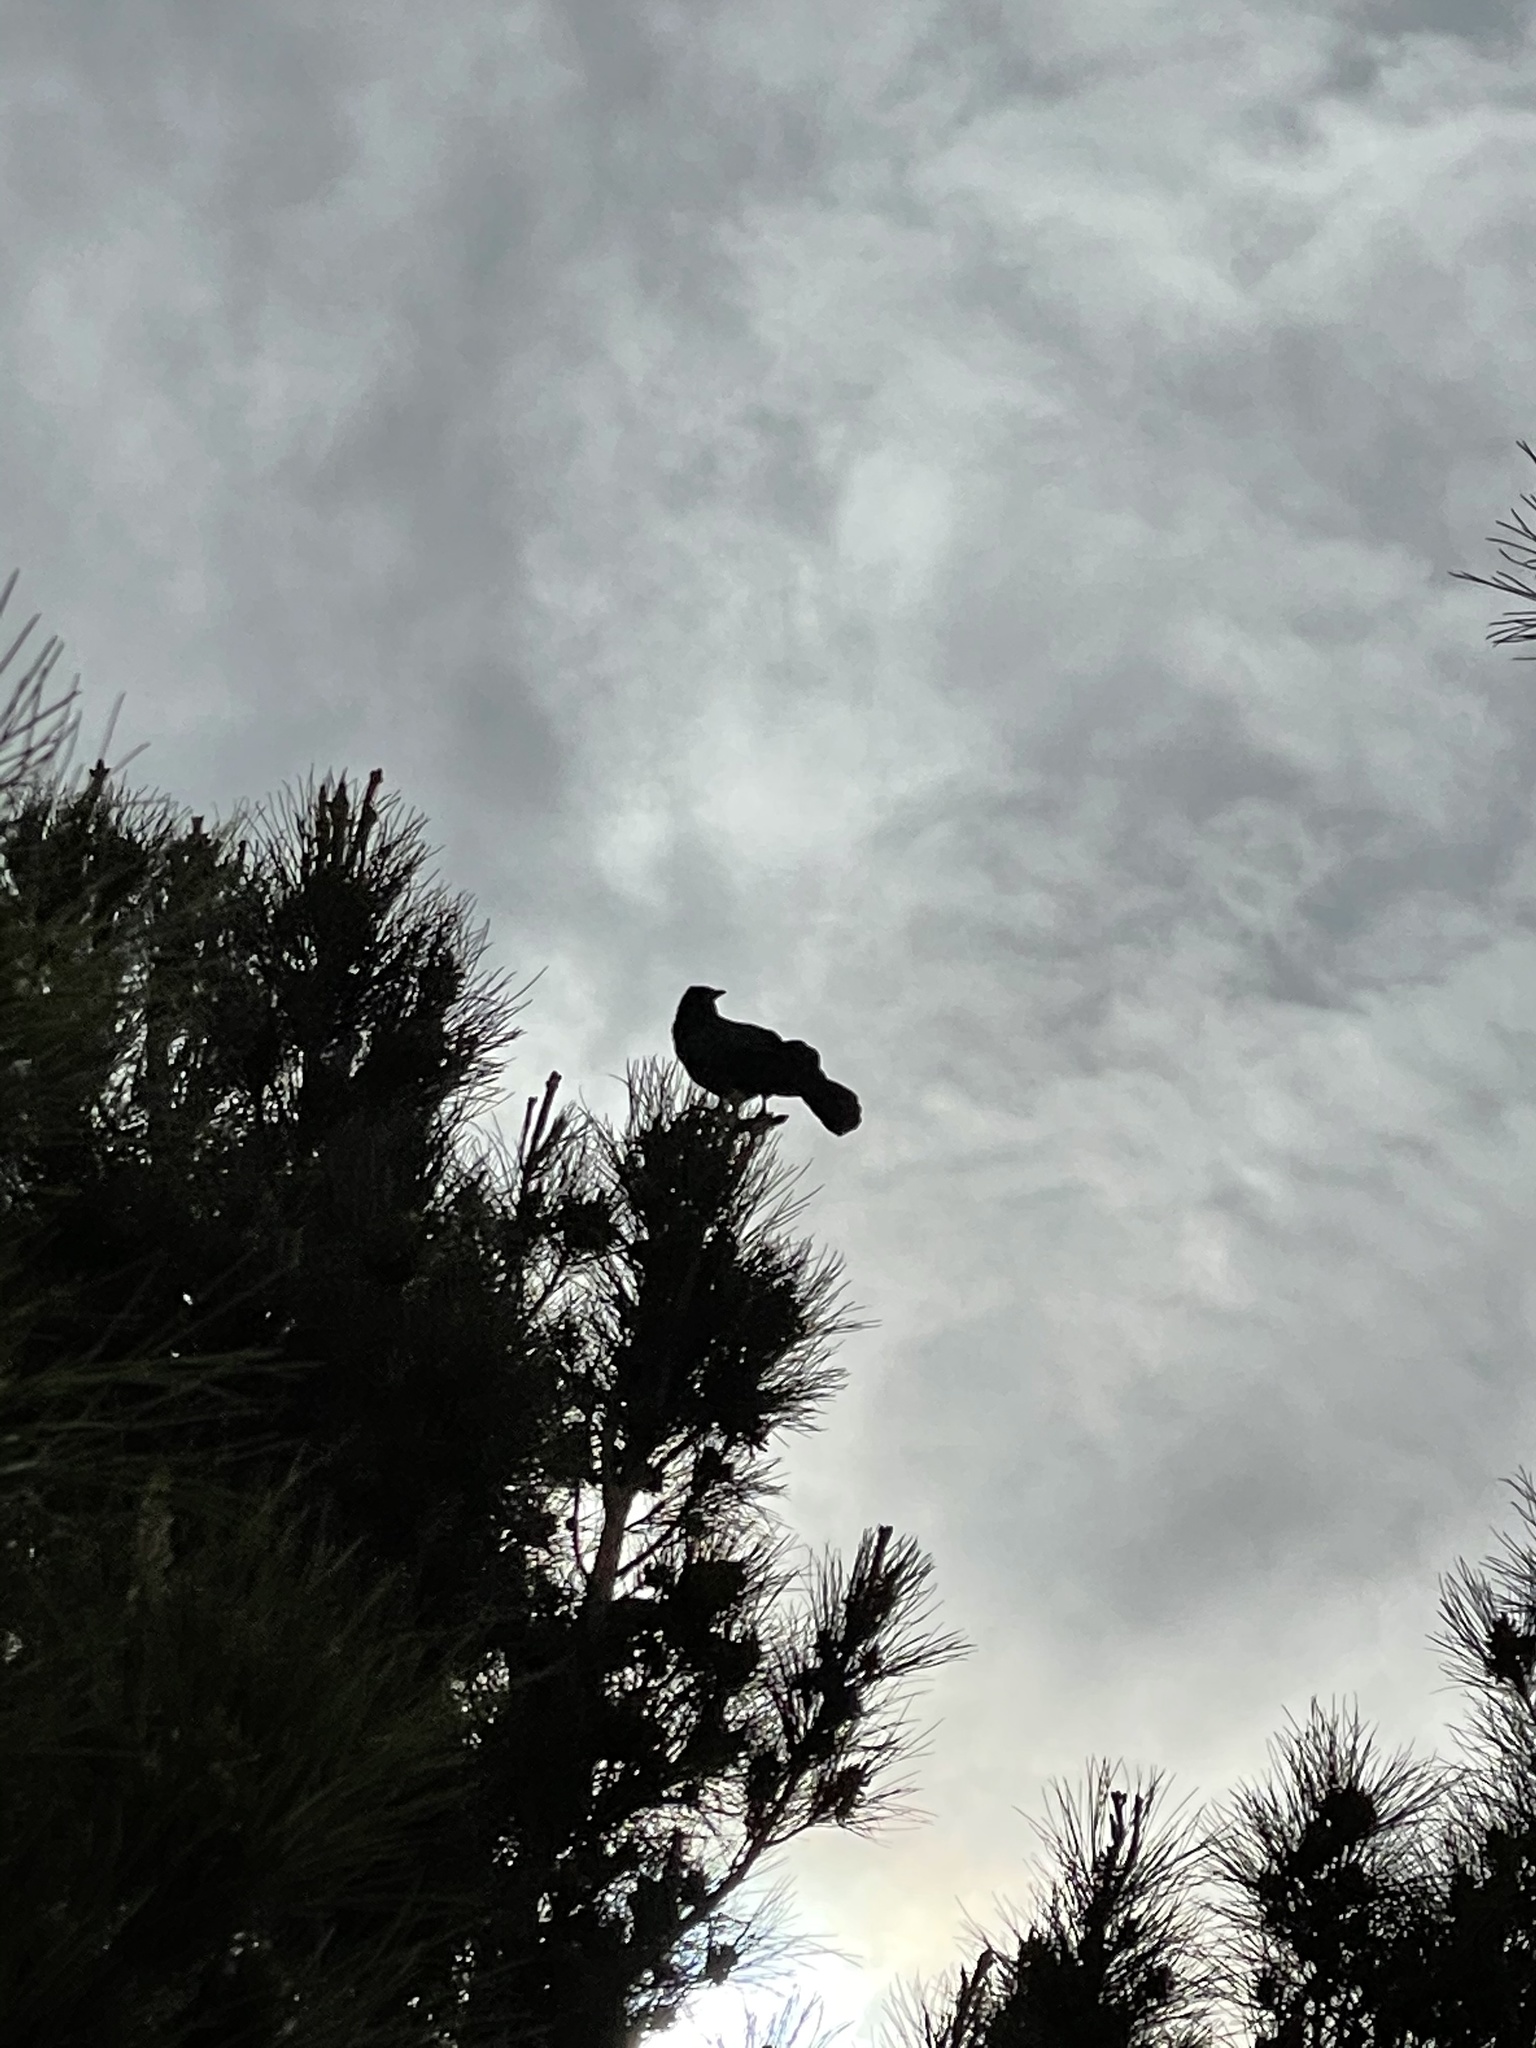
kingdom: Animalia
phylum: Chordata
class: Aves
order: Passeriformes
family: Icteridae
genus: Quiscalus
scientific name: Quiscalus mexicanus
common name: Great-tailed grackle
